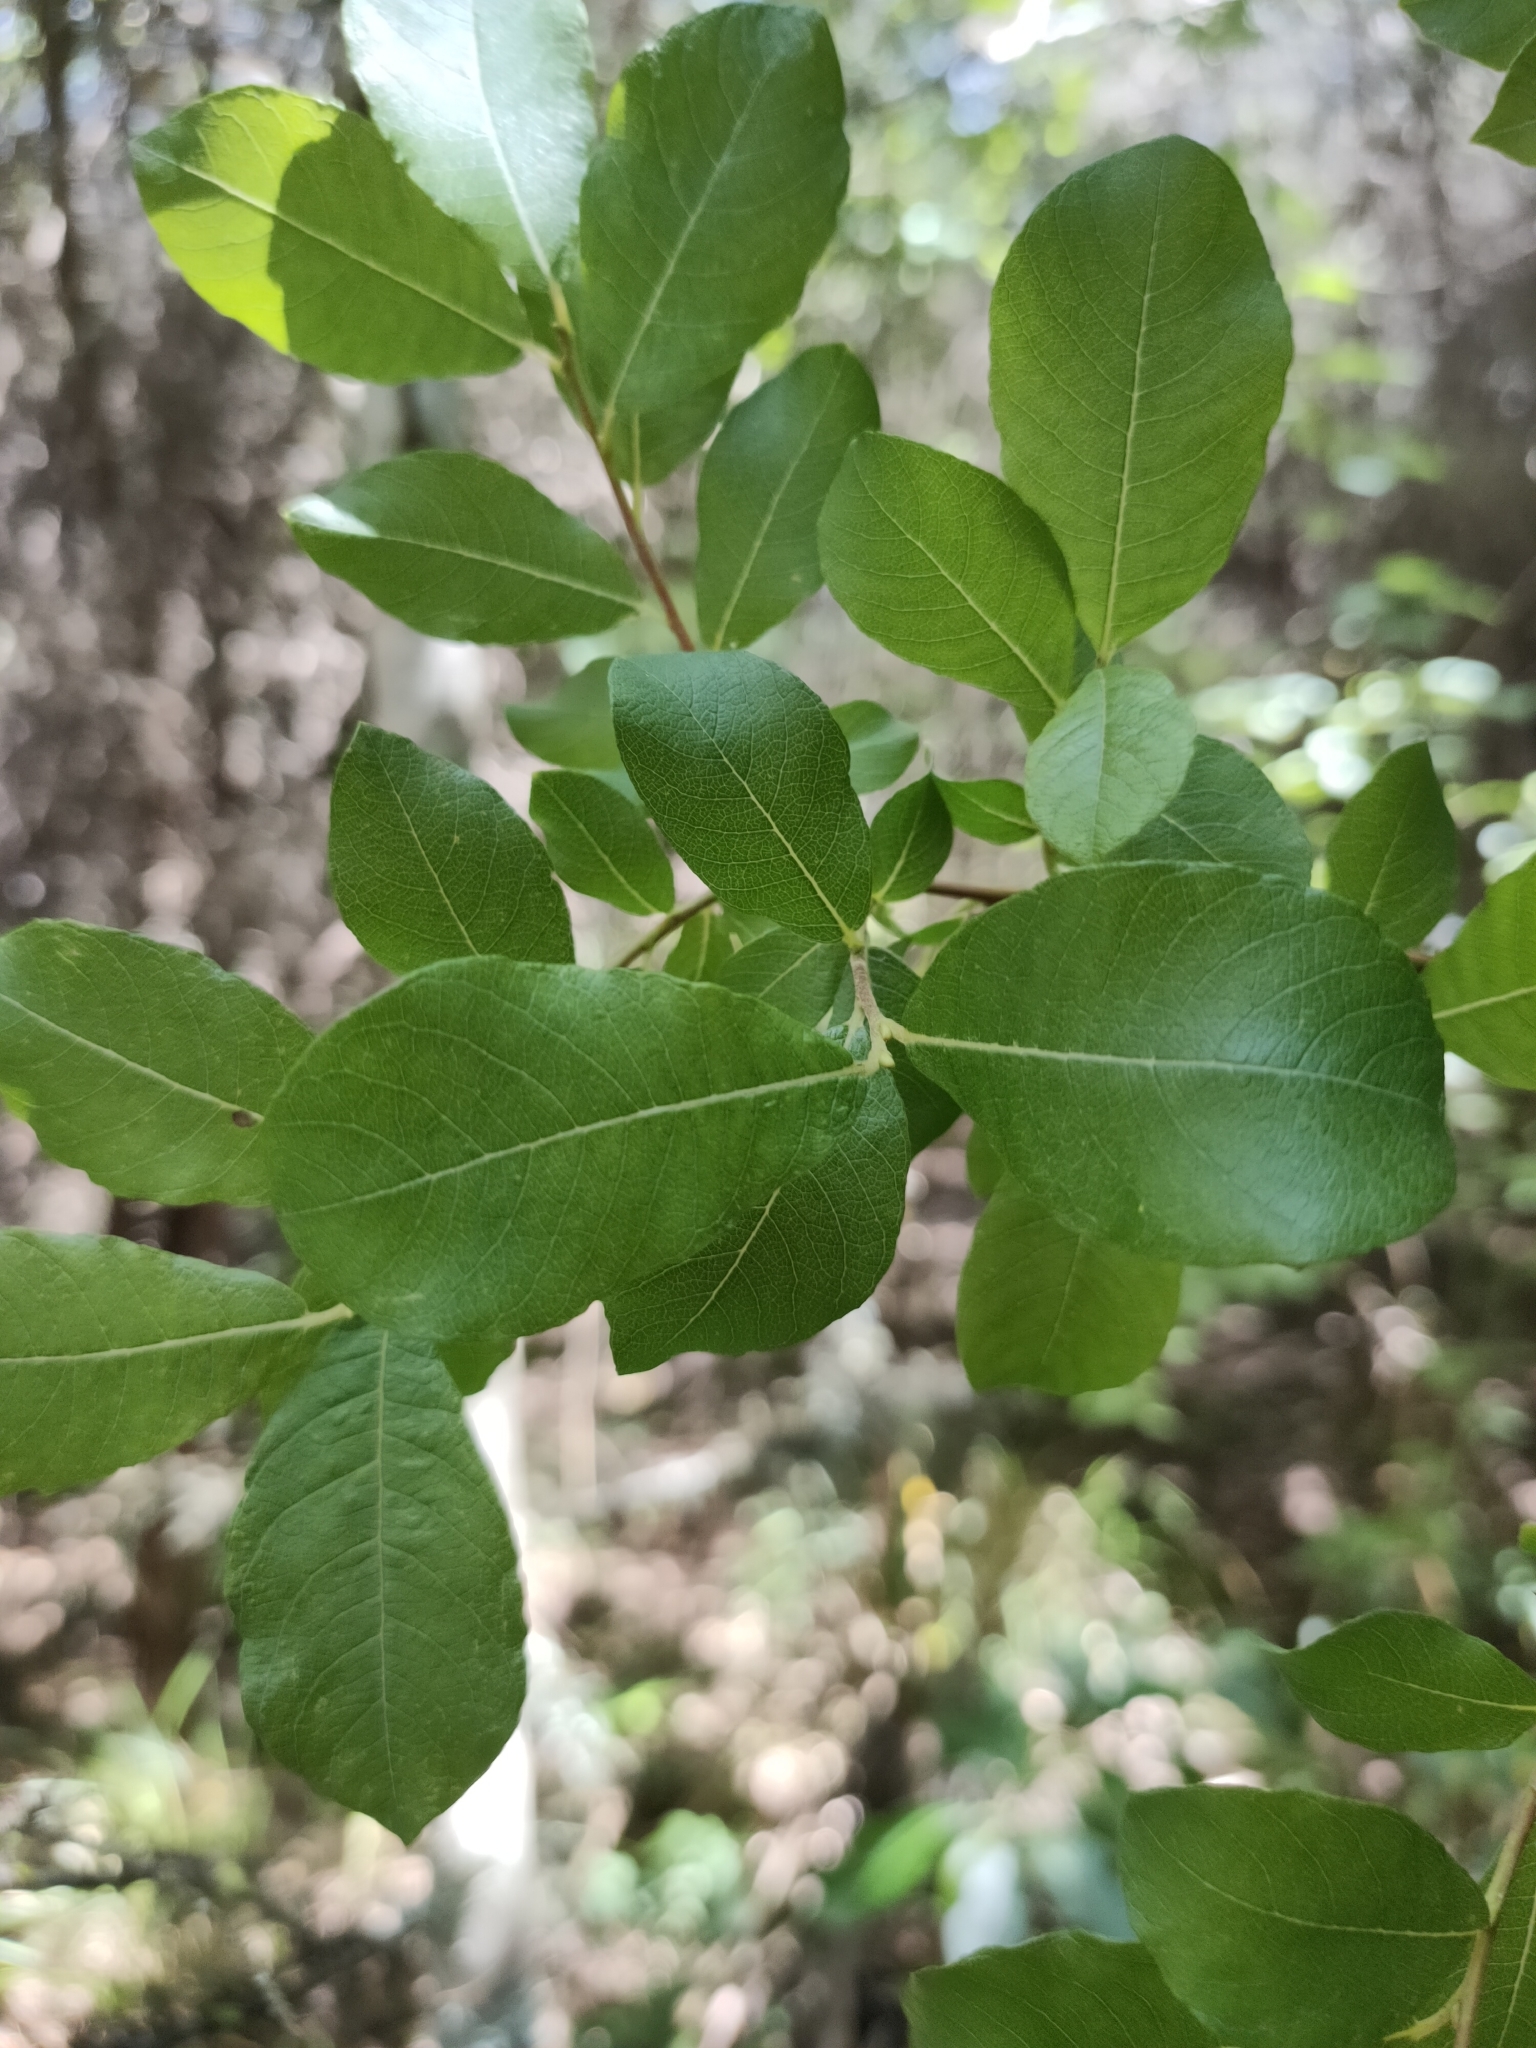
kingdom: Plantae
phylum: Tracheophyta
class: Magnoliopsida
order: Malpighiales
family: Salicaceae
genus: Salix
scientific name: Salix cinerea
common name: Common sallow
